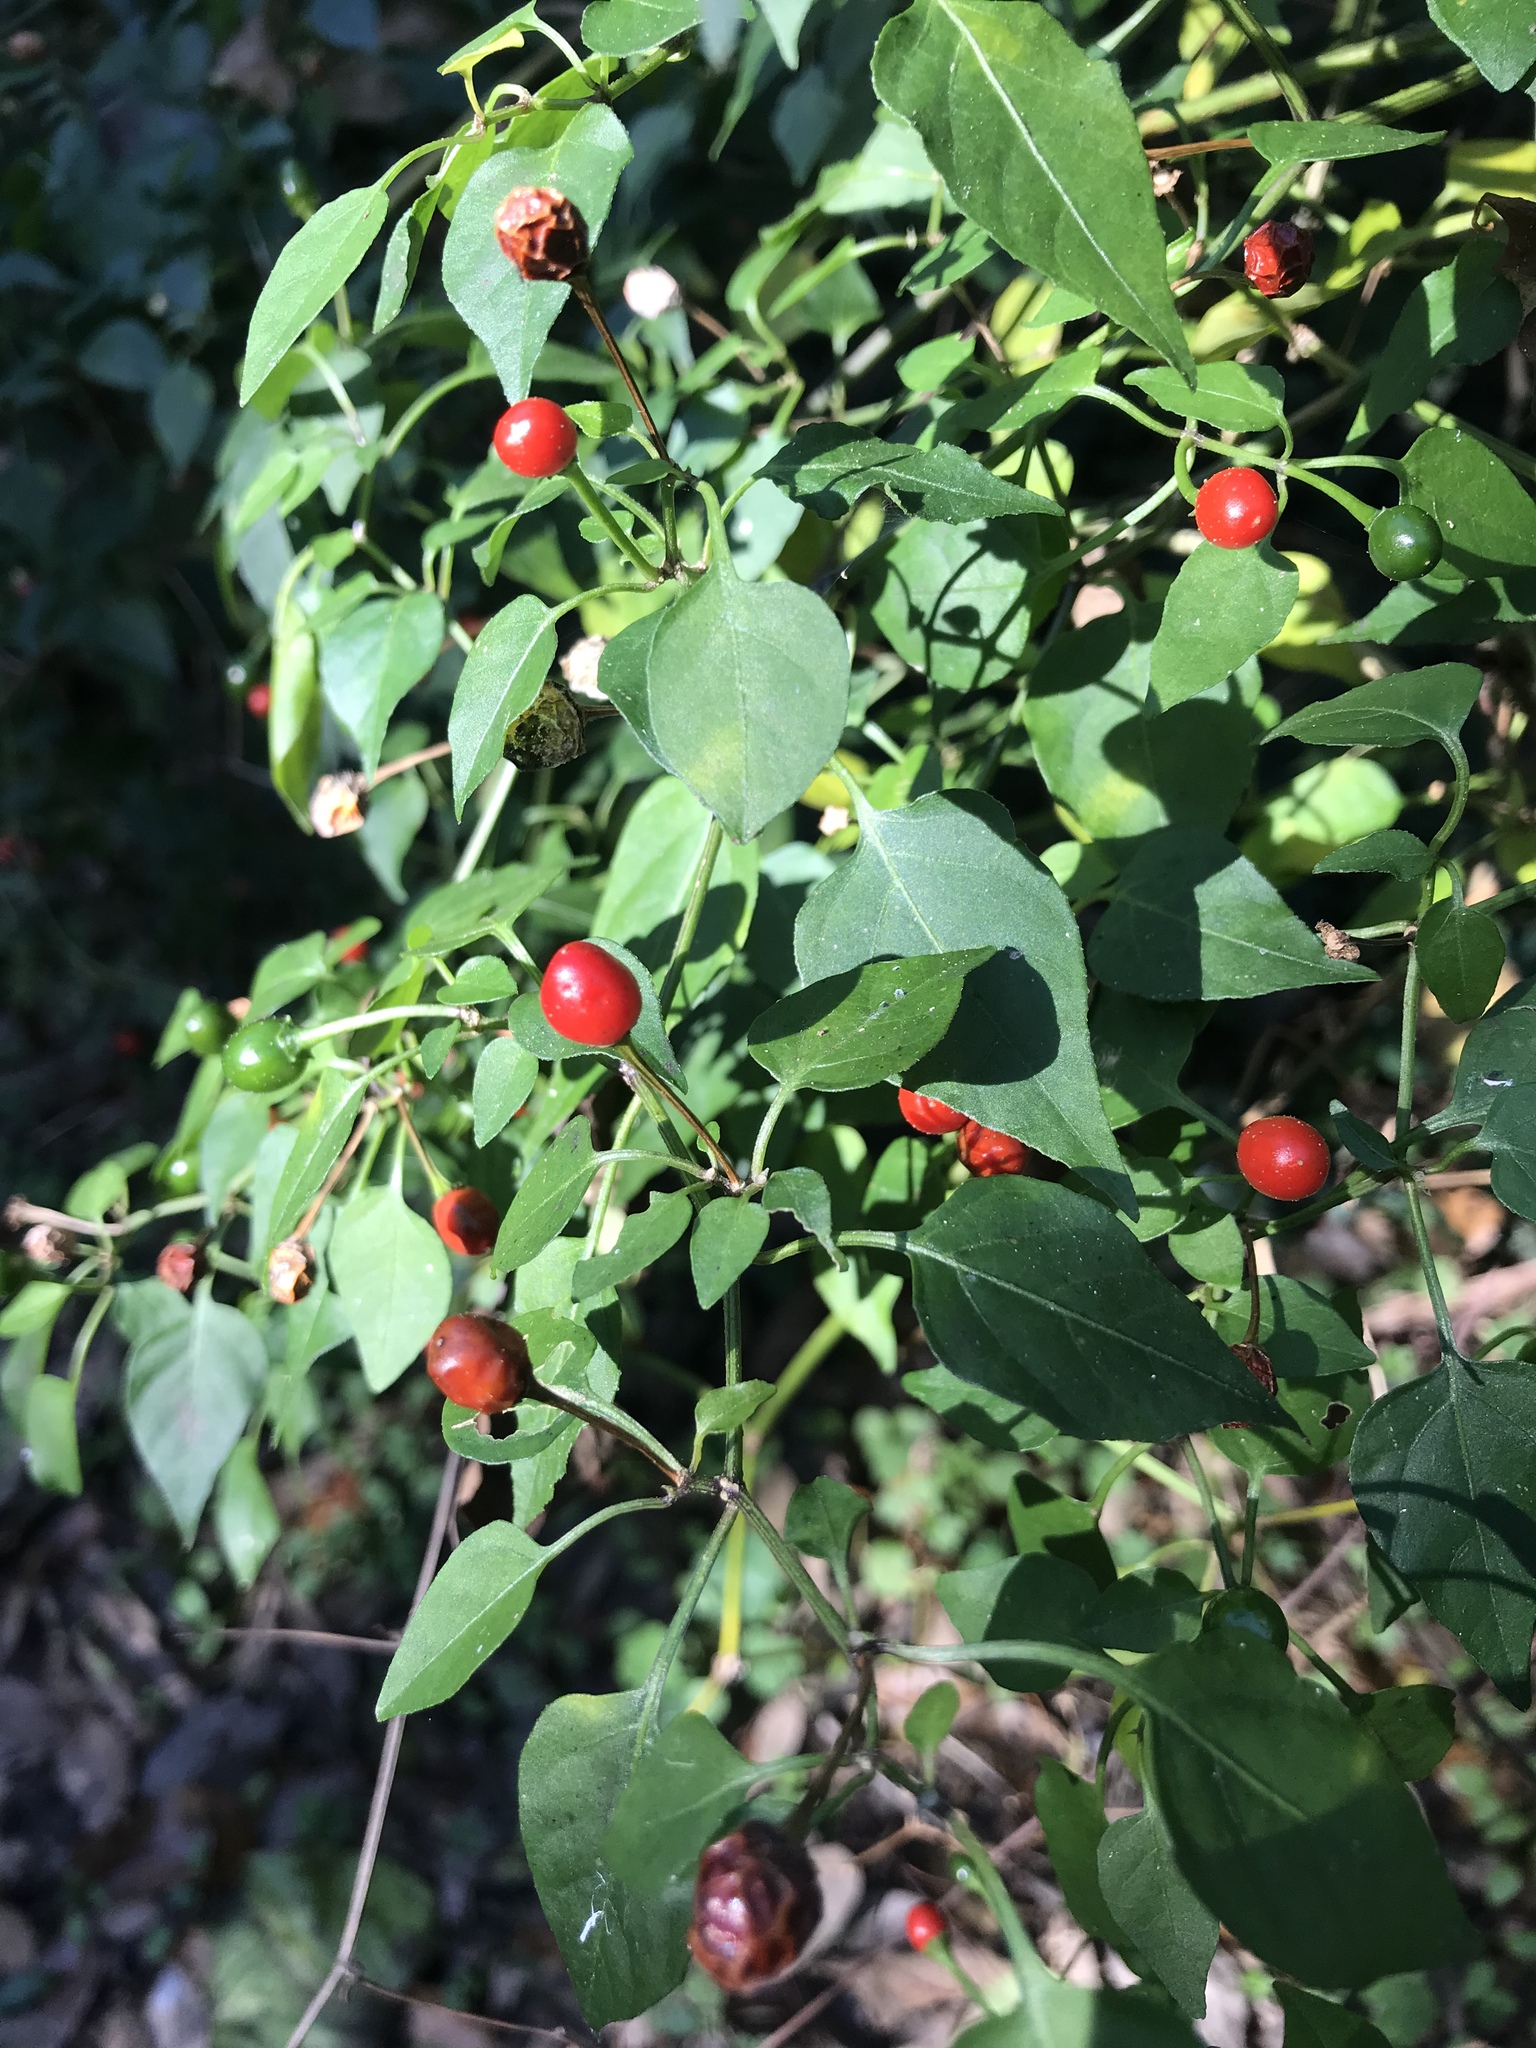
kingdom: Plantae
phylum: Tracheophyta
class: Magnoliopsida
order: Solanales
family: Solanaceae
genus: Capsicum
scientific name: Capsicum annuum
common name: Sweet pepper
